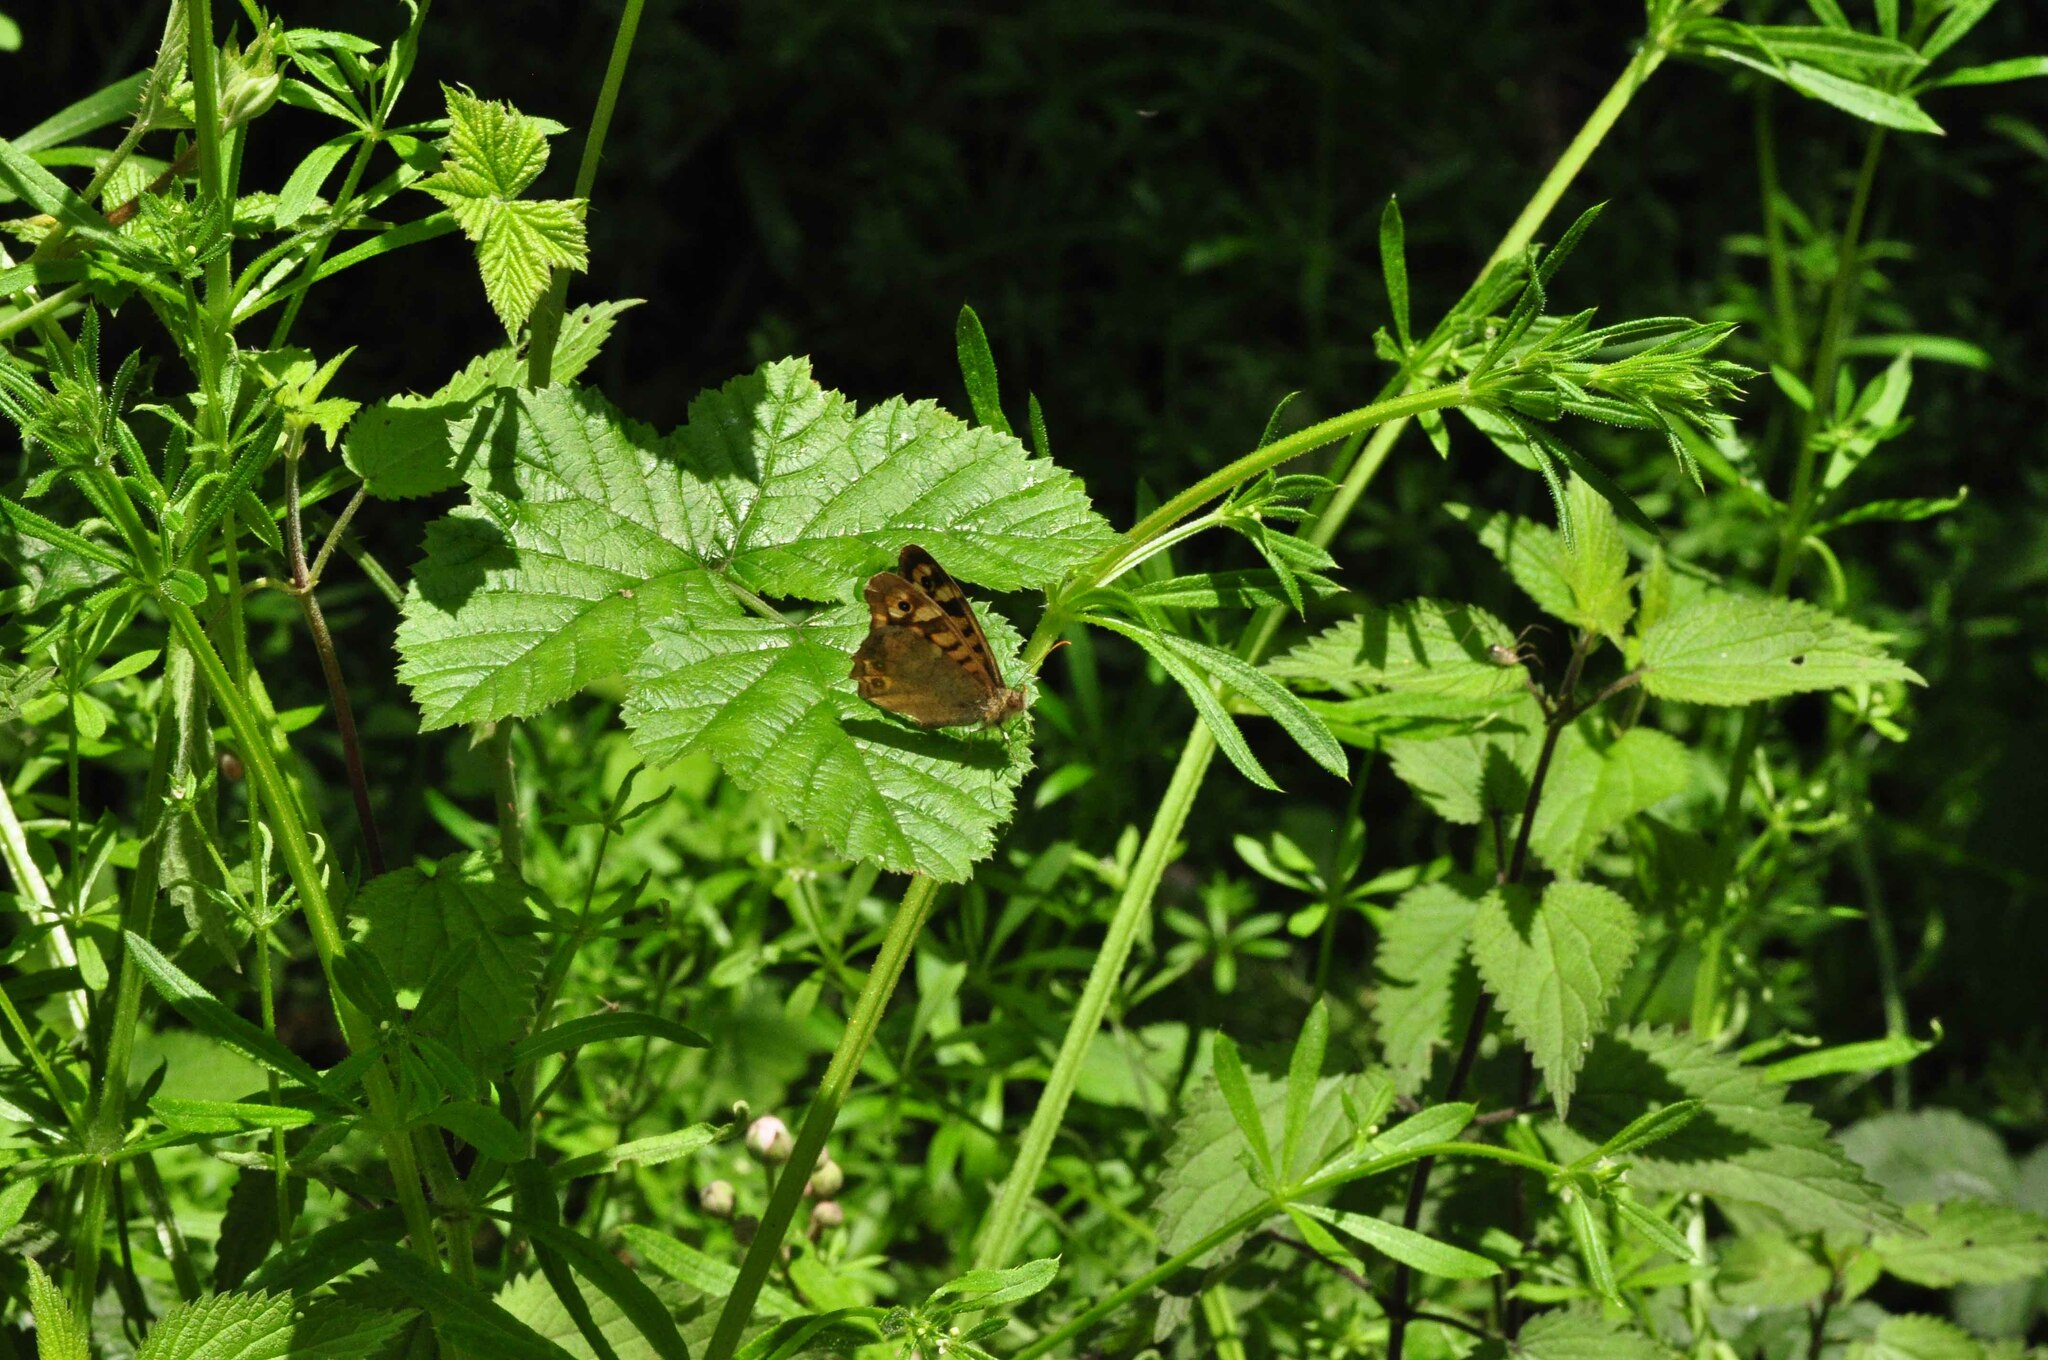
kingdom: Animalia
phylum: Arthropoda
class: Insecta
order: Lepidoptera
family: Nymphalidae
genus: Pararge
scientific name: Pararge aegeria
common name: Speckled wood
